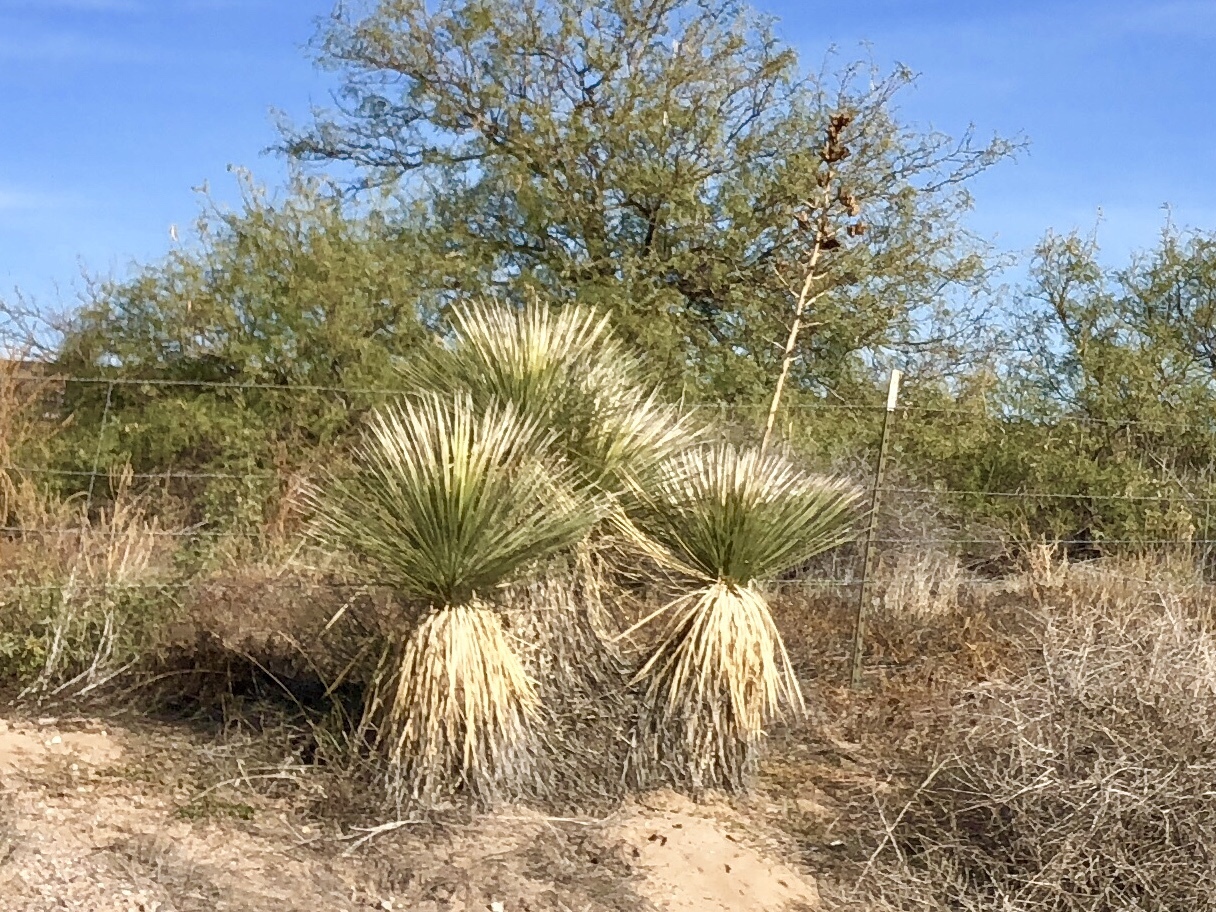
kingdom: Plantae
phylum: Tracheophyta
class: Liliopsida
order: Asparagales
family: Asparagaceae
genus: Yucca
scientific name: Yucca elata
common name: Palmella
